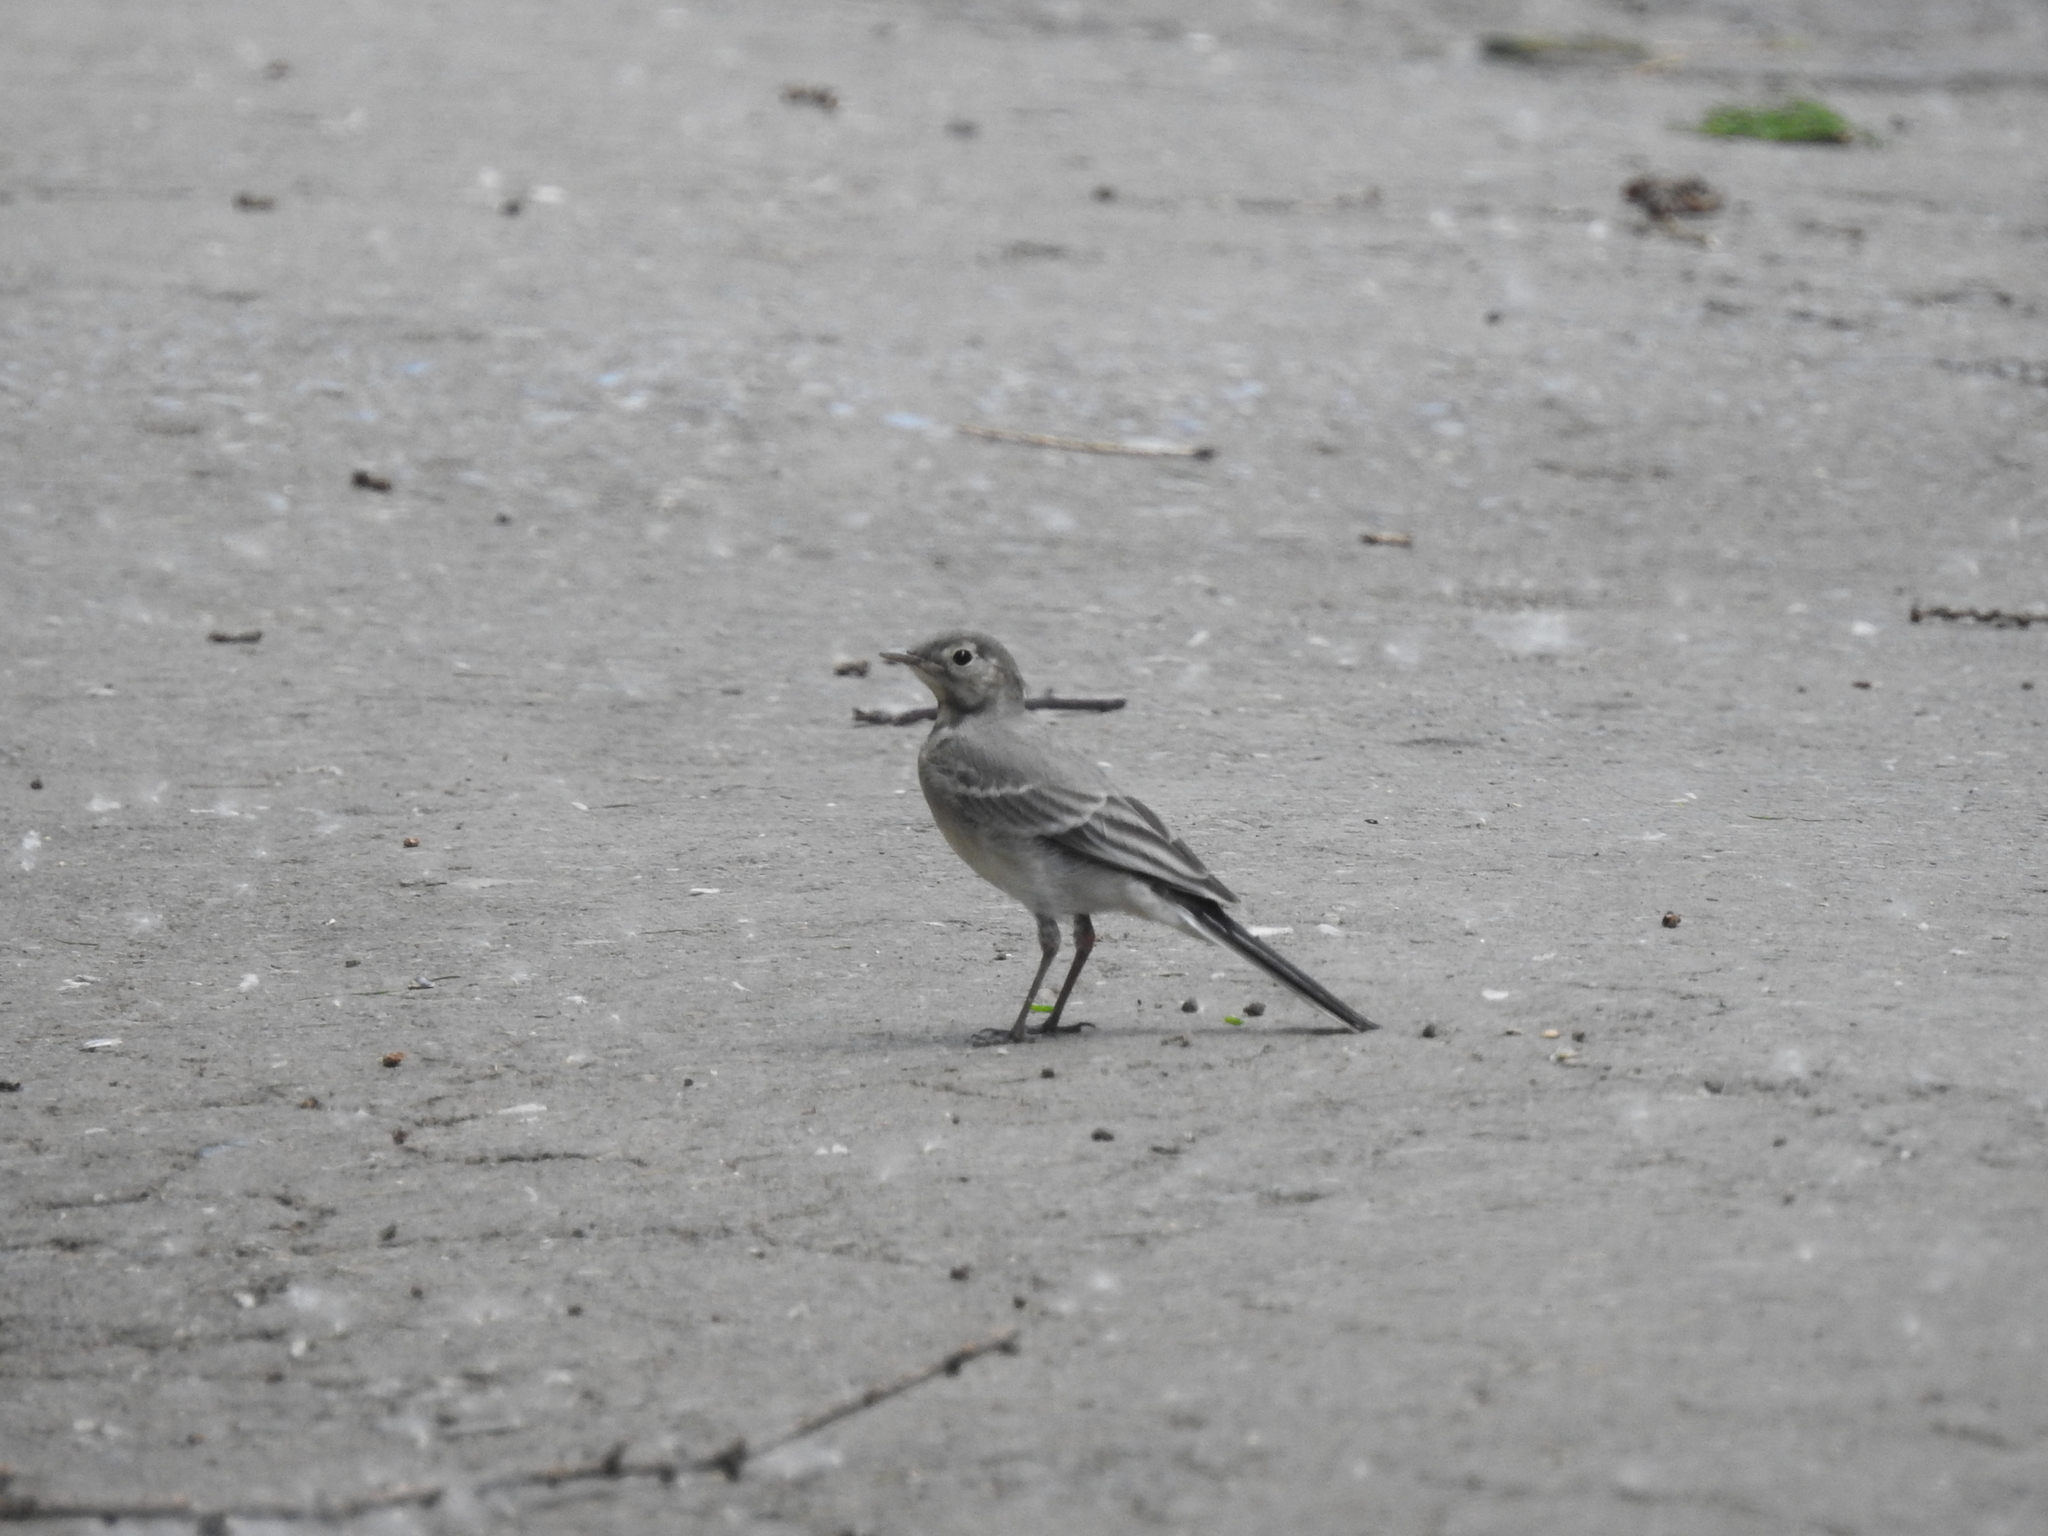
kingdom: Animalia
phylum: Chordata
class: Aves
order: Passeriformes
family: Motacillidae
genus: Motacilla
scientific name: Motacilla alba
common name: White wagtail
